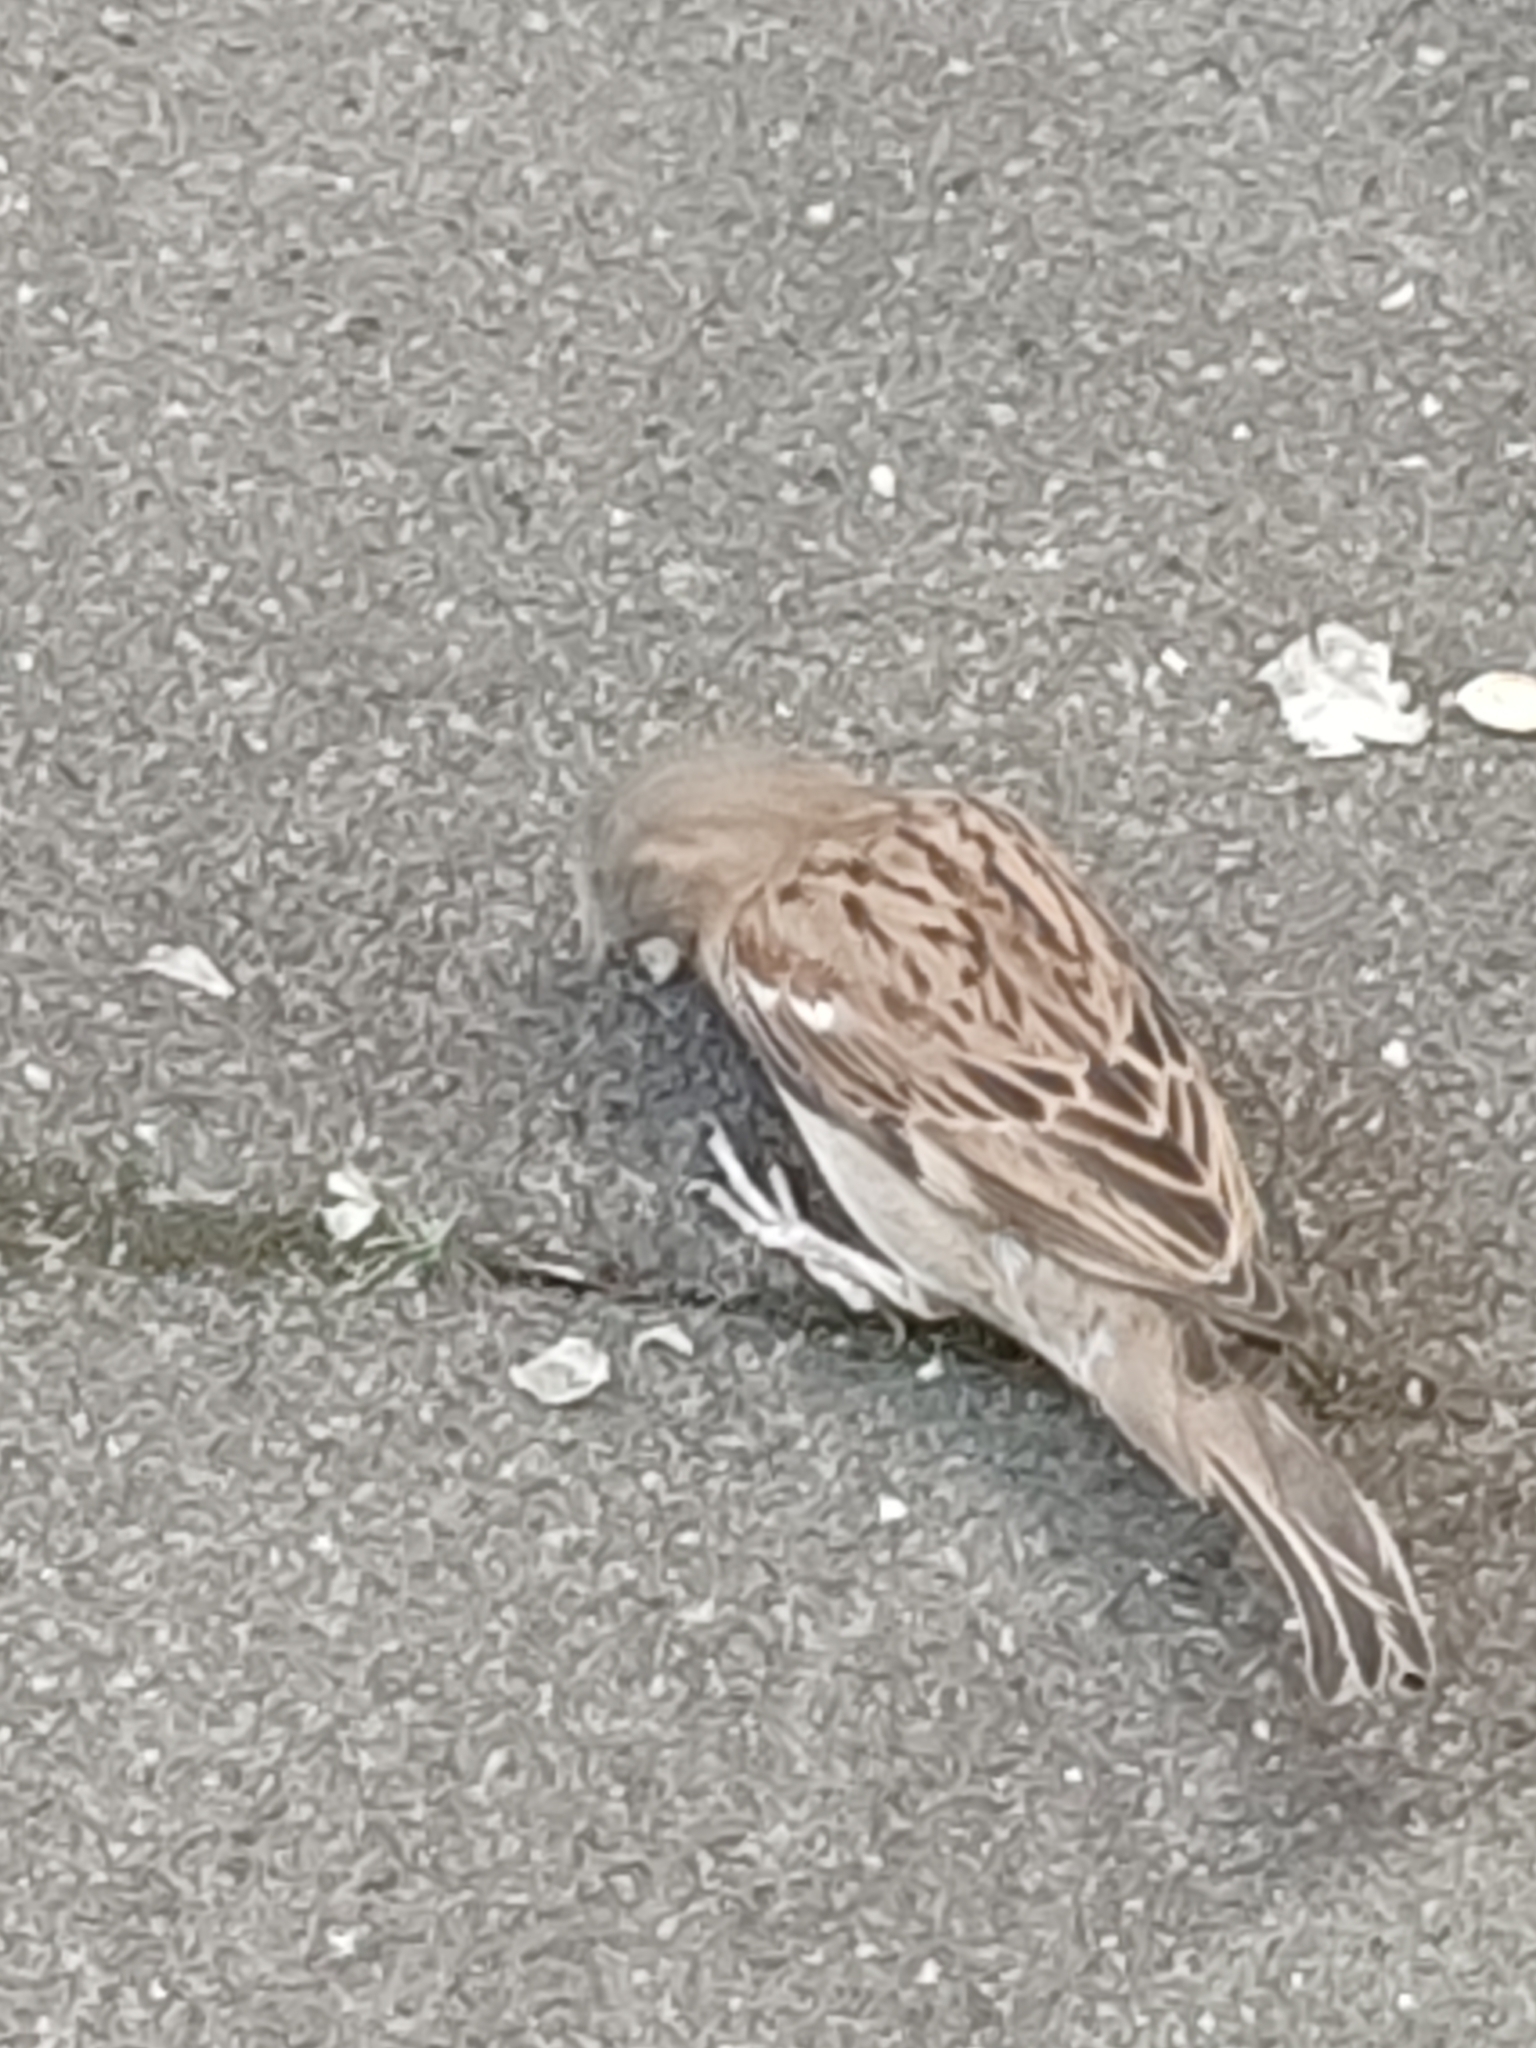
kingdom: Animalia
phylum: Chordata
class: Aves
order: Passeriformes
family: Passeridae
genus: Passer
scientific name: Passer domesticus
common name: House sparrow
